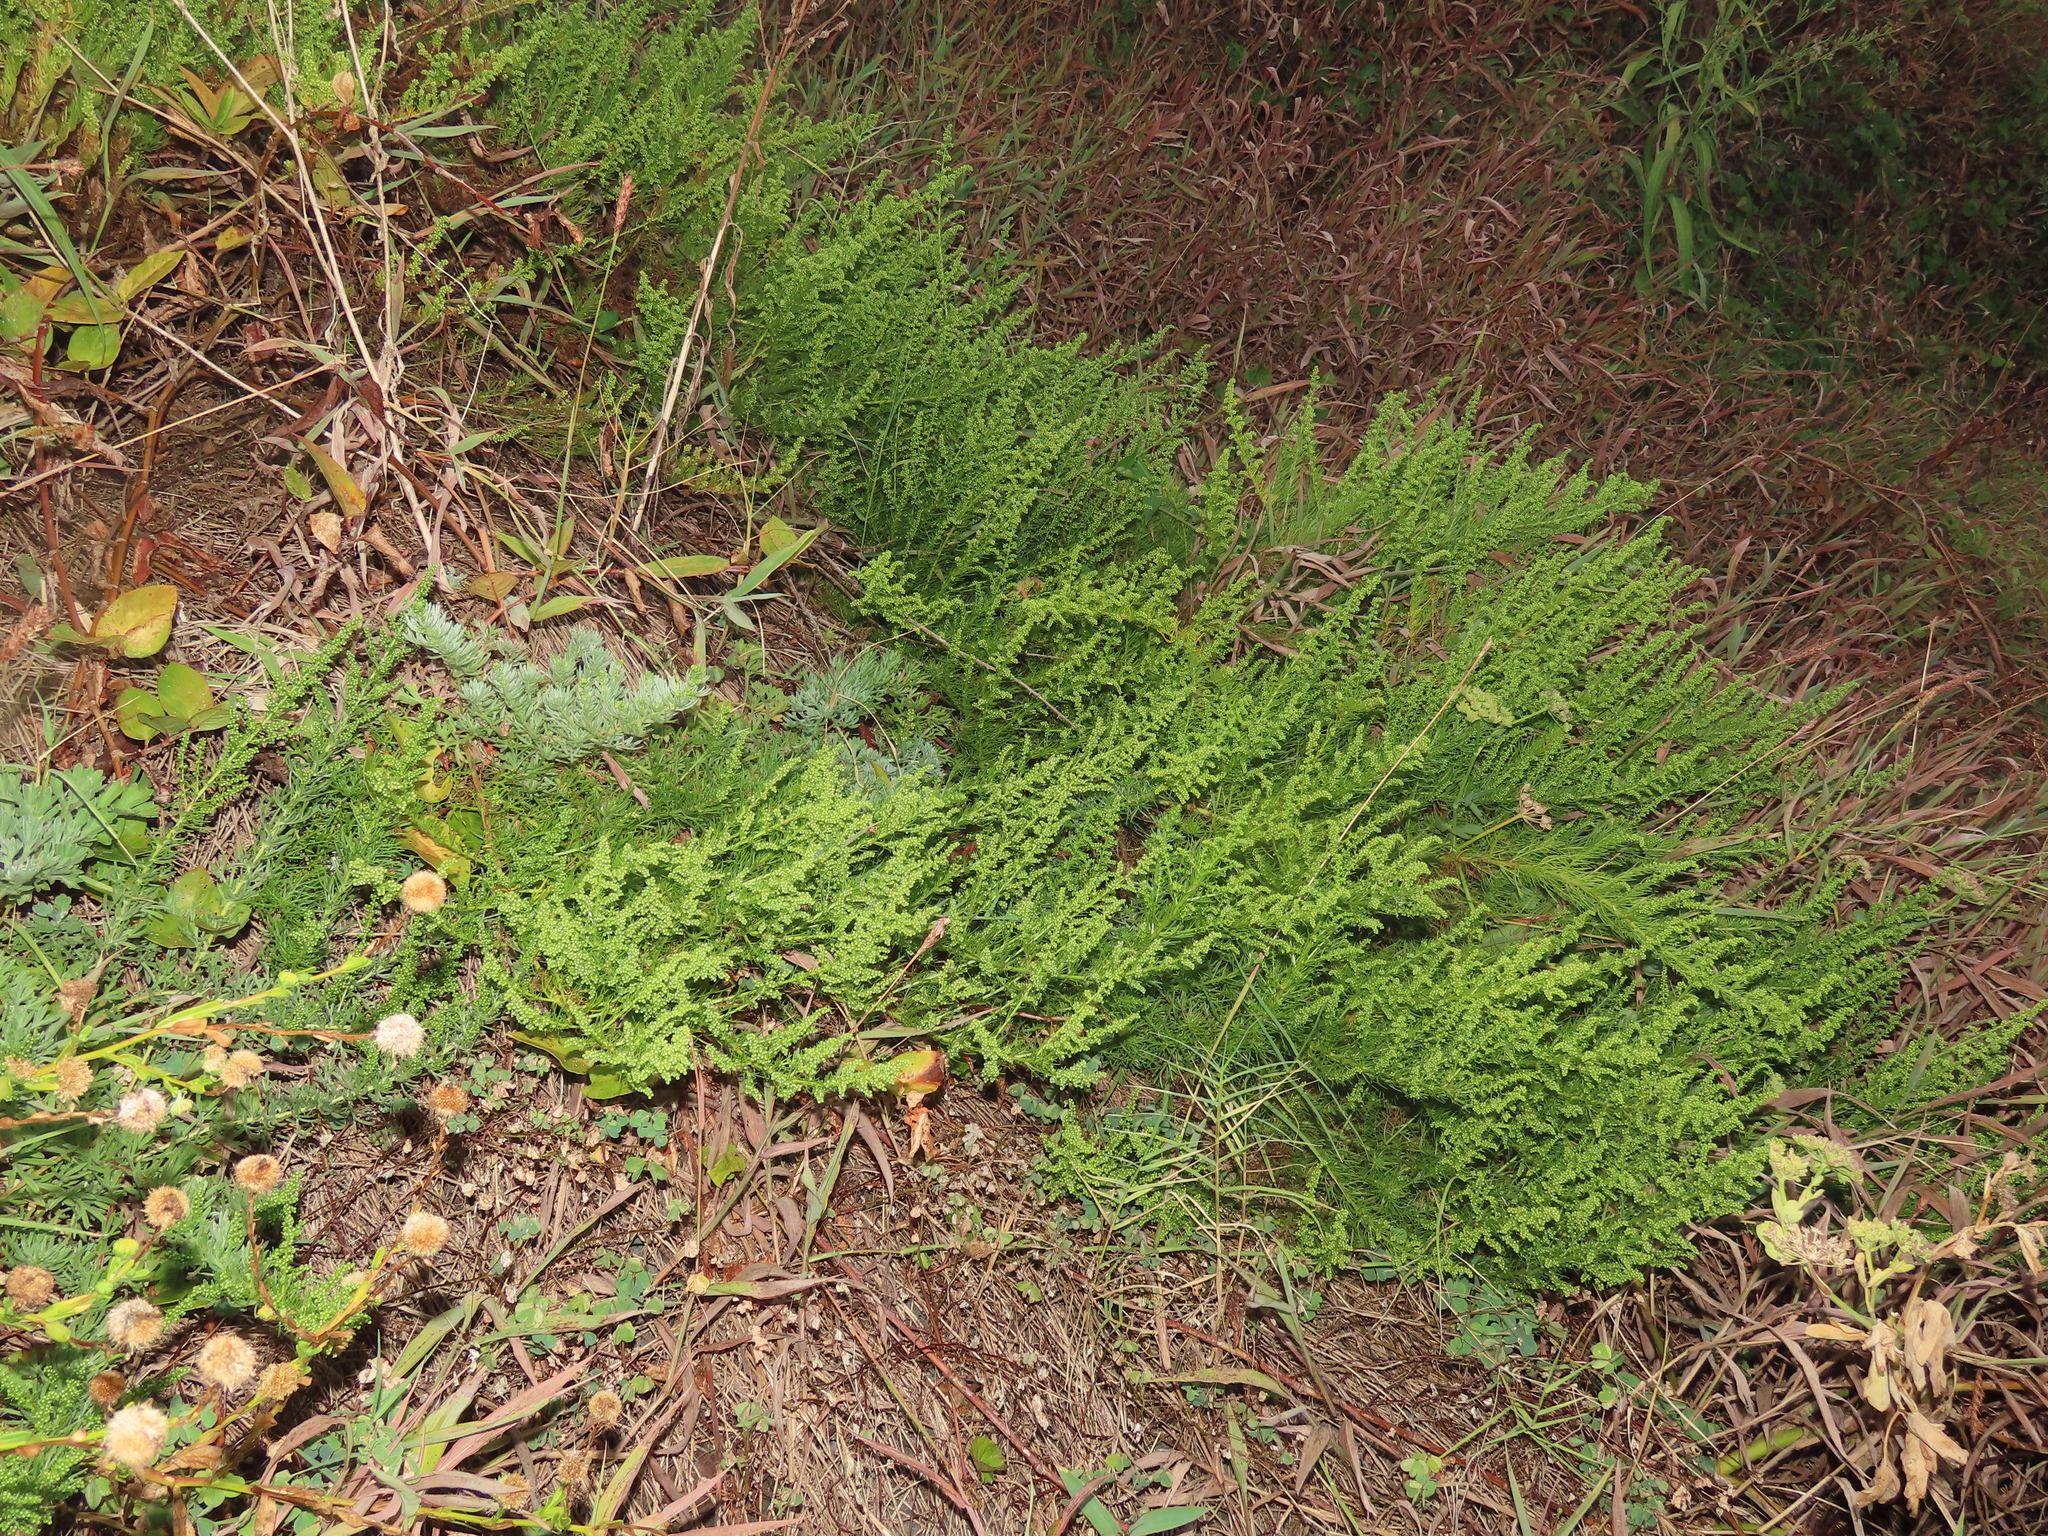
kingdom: Plantae
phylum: Tracheophyta
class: Magnoliopsida
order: Asterales
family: Asteraceae
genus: Artemisia
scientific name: Artemisia capillaris
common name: Yin-chen wormwood
